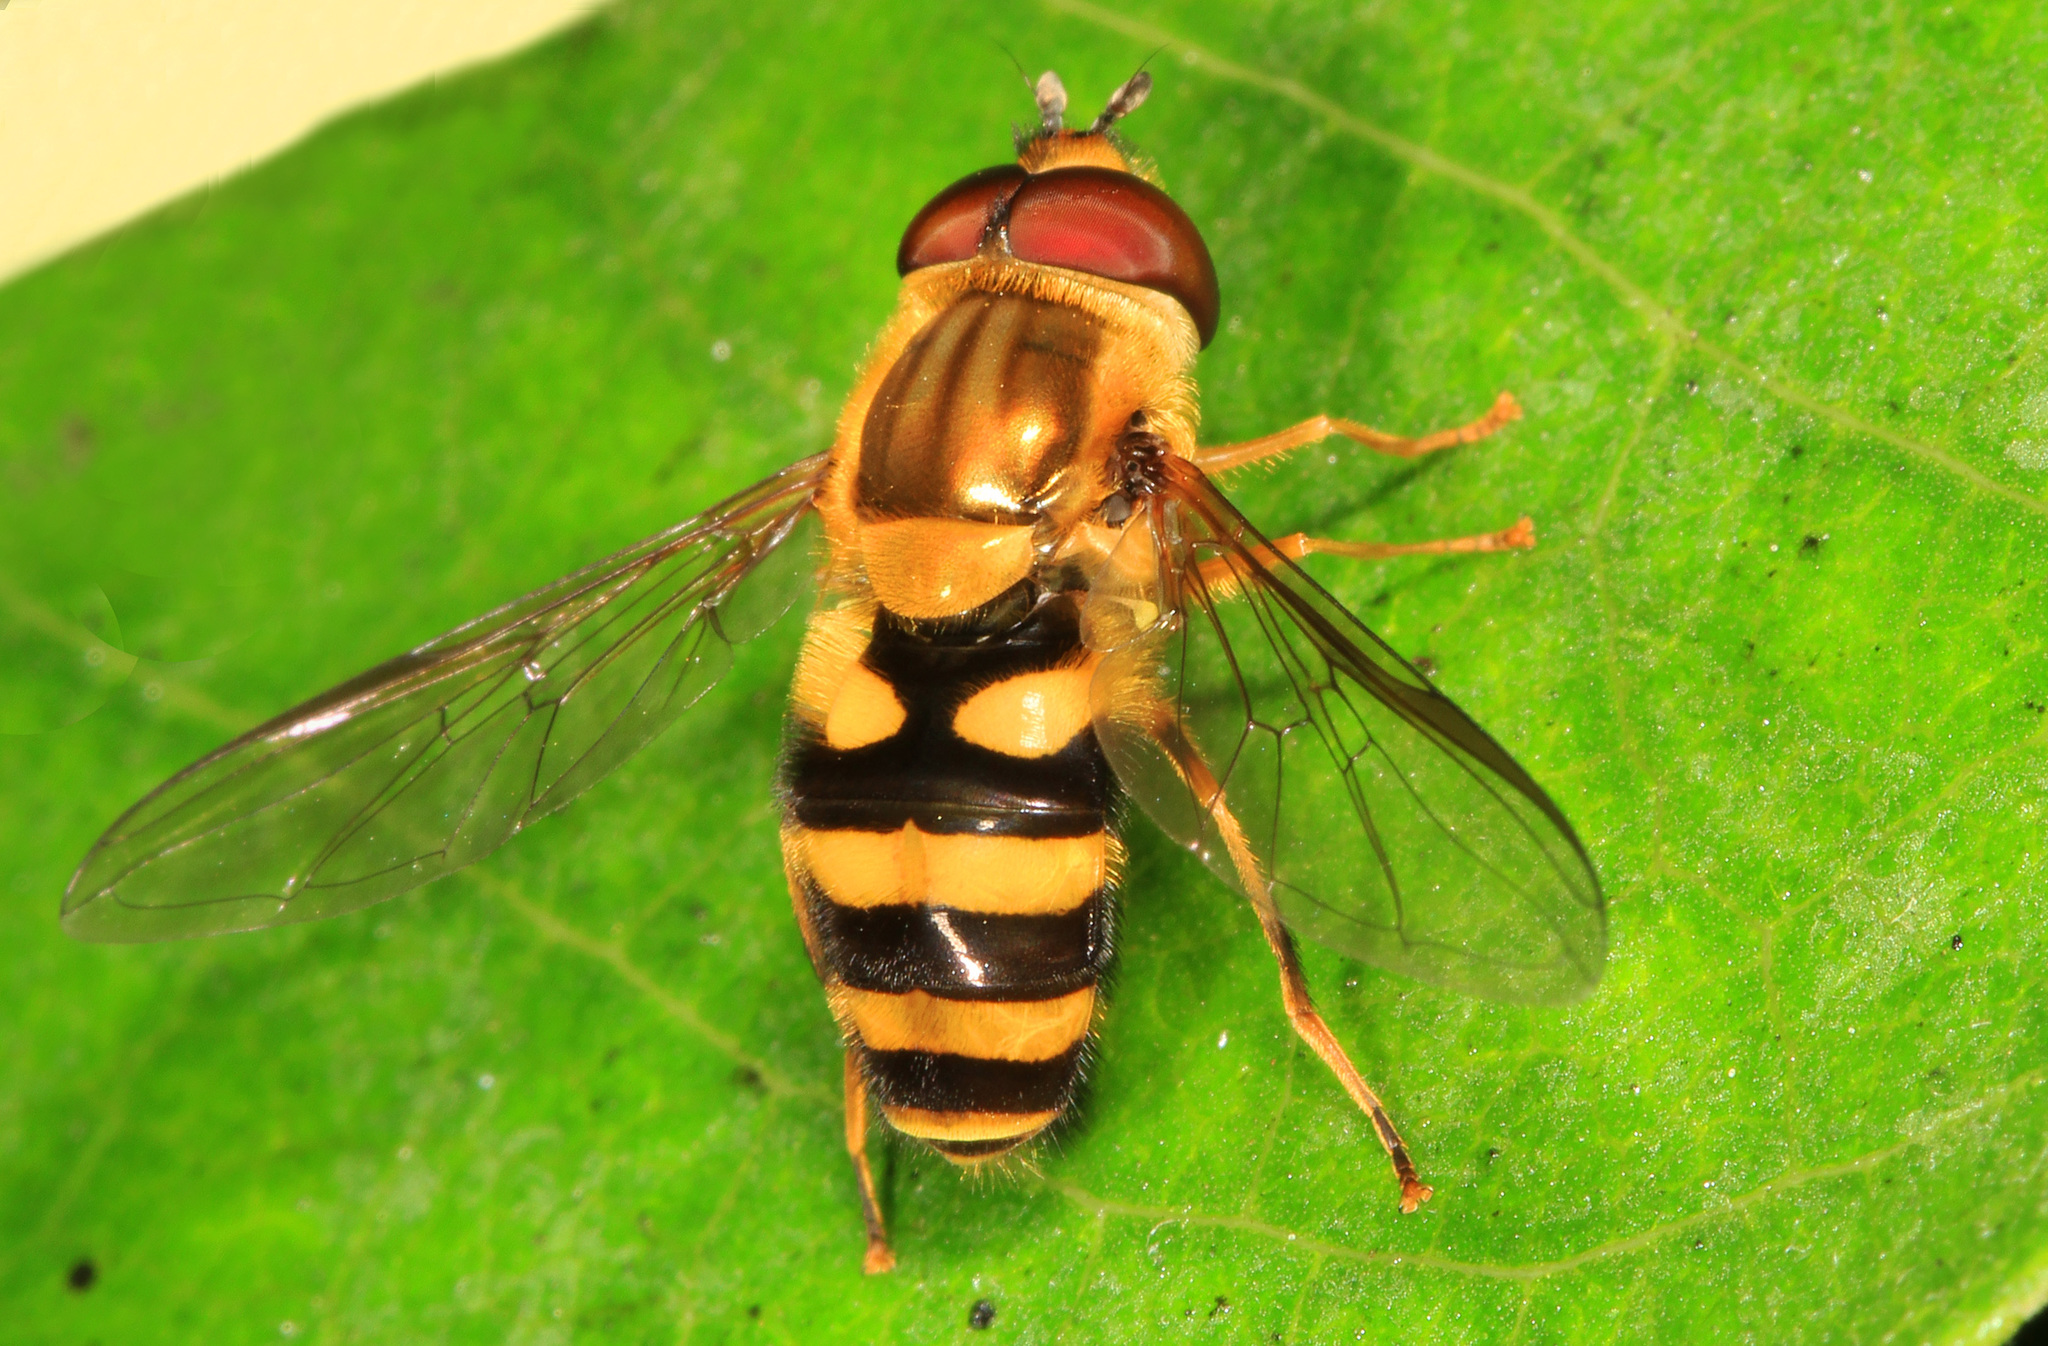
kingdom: Animalia
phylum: Arthropoda
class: Insecta
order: Diptera
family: Syrphidae
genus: Syrphus
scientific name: Syrphus knabi
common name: Eastern flower fly
